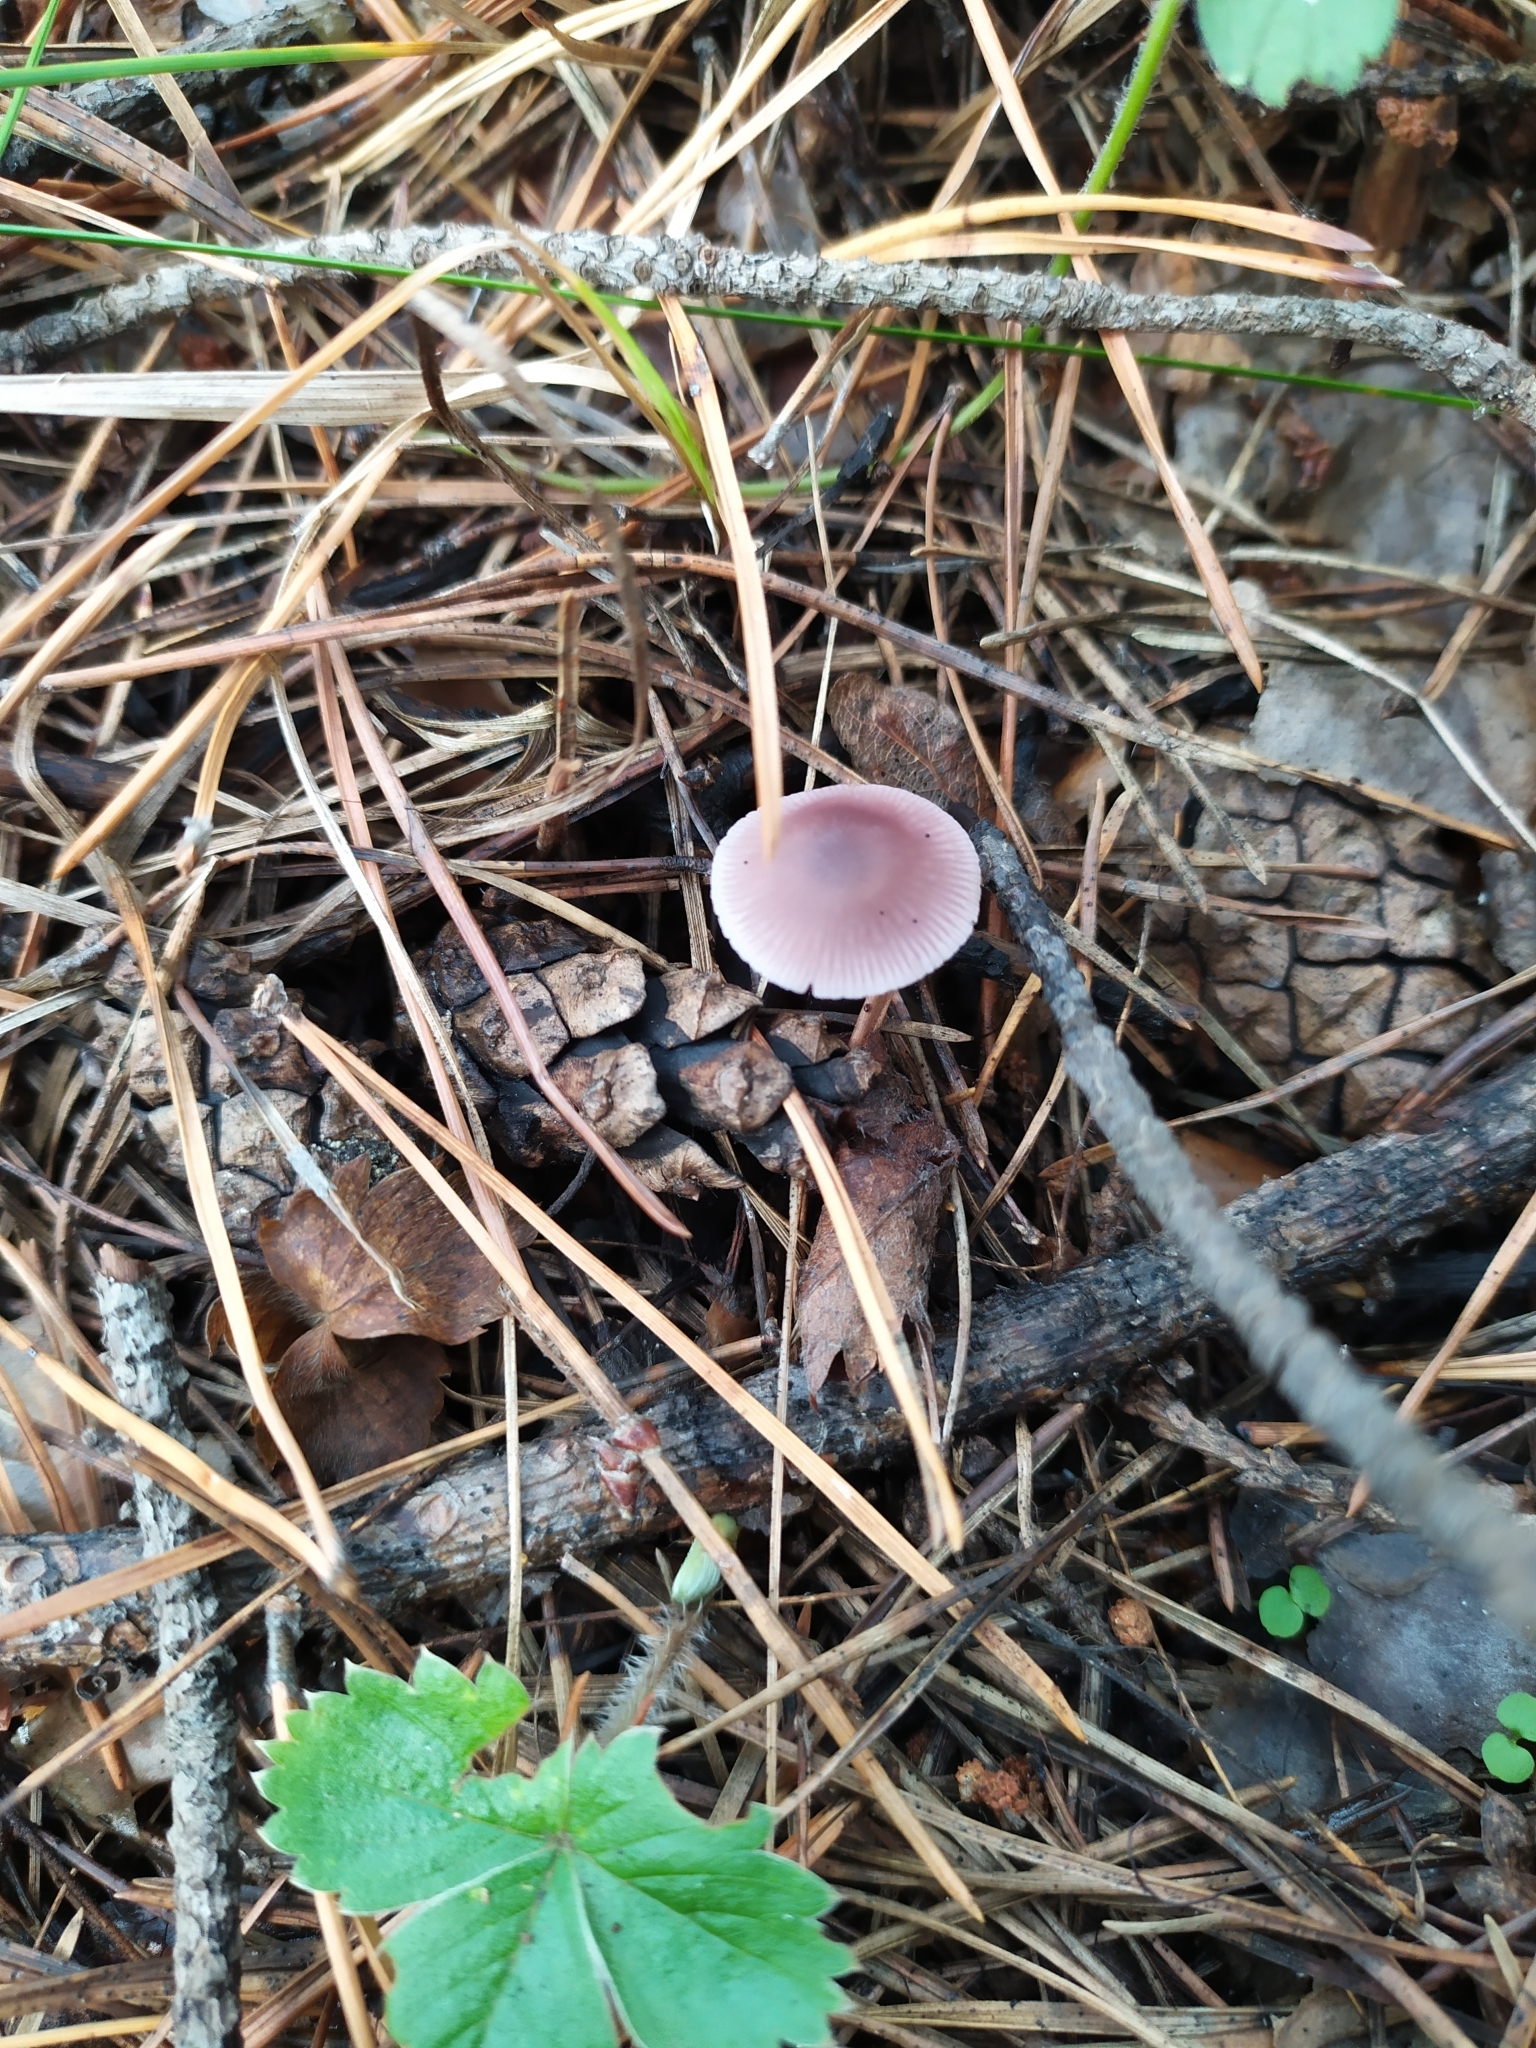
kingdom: Fungi
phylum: Basidiomycota
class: Agaricomycetes
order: Agaricales
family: Mycenaceae
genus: Mycena
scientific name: Mycena pura
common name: Lilac bonnet
